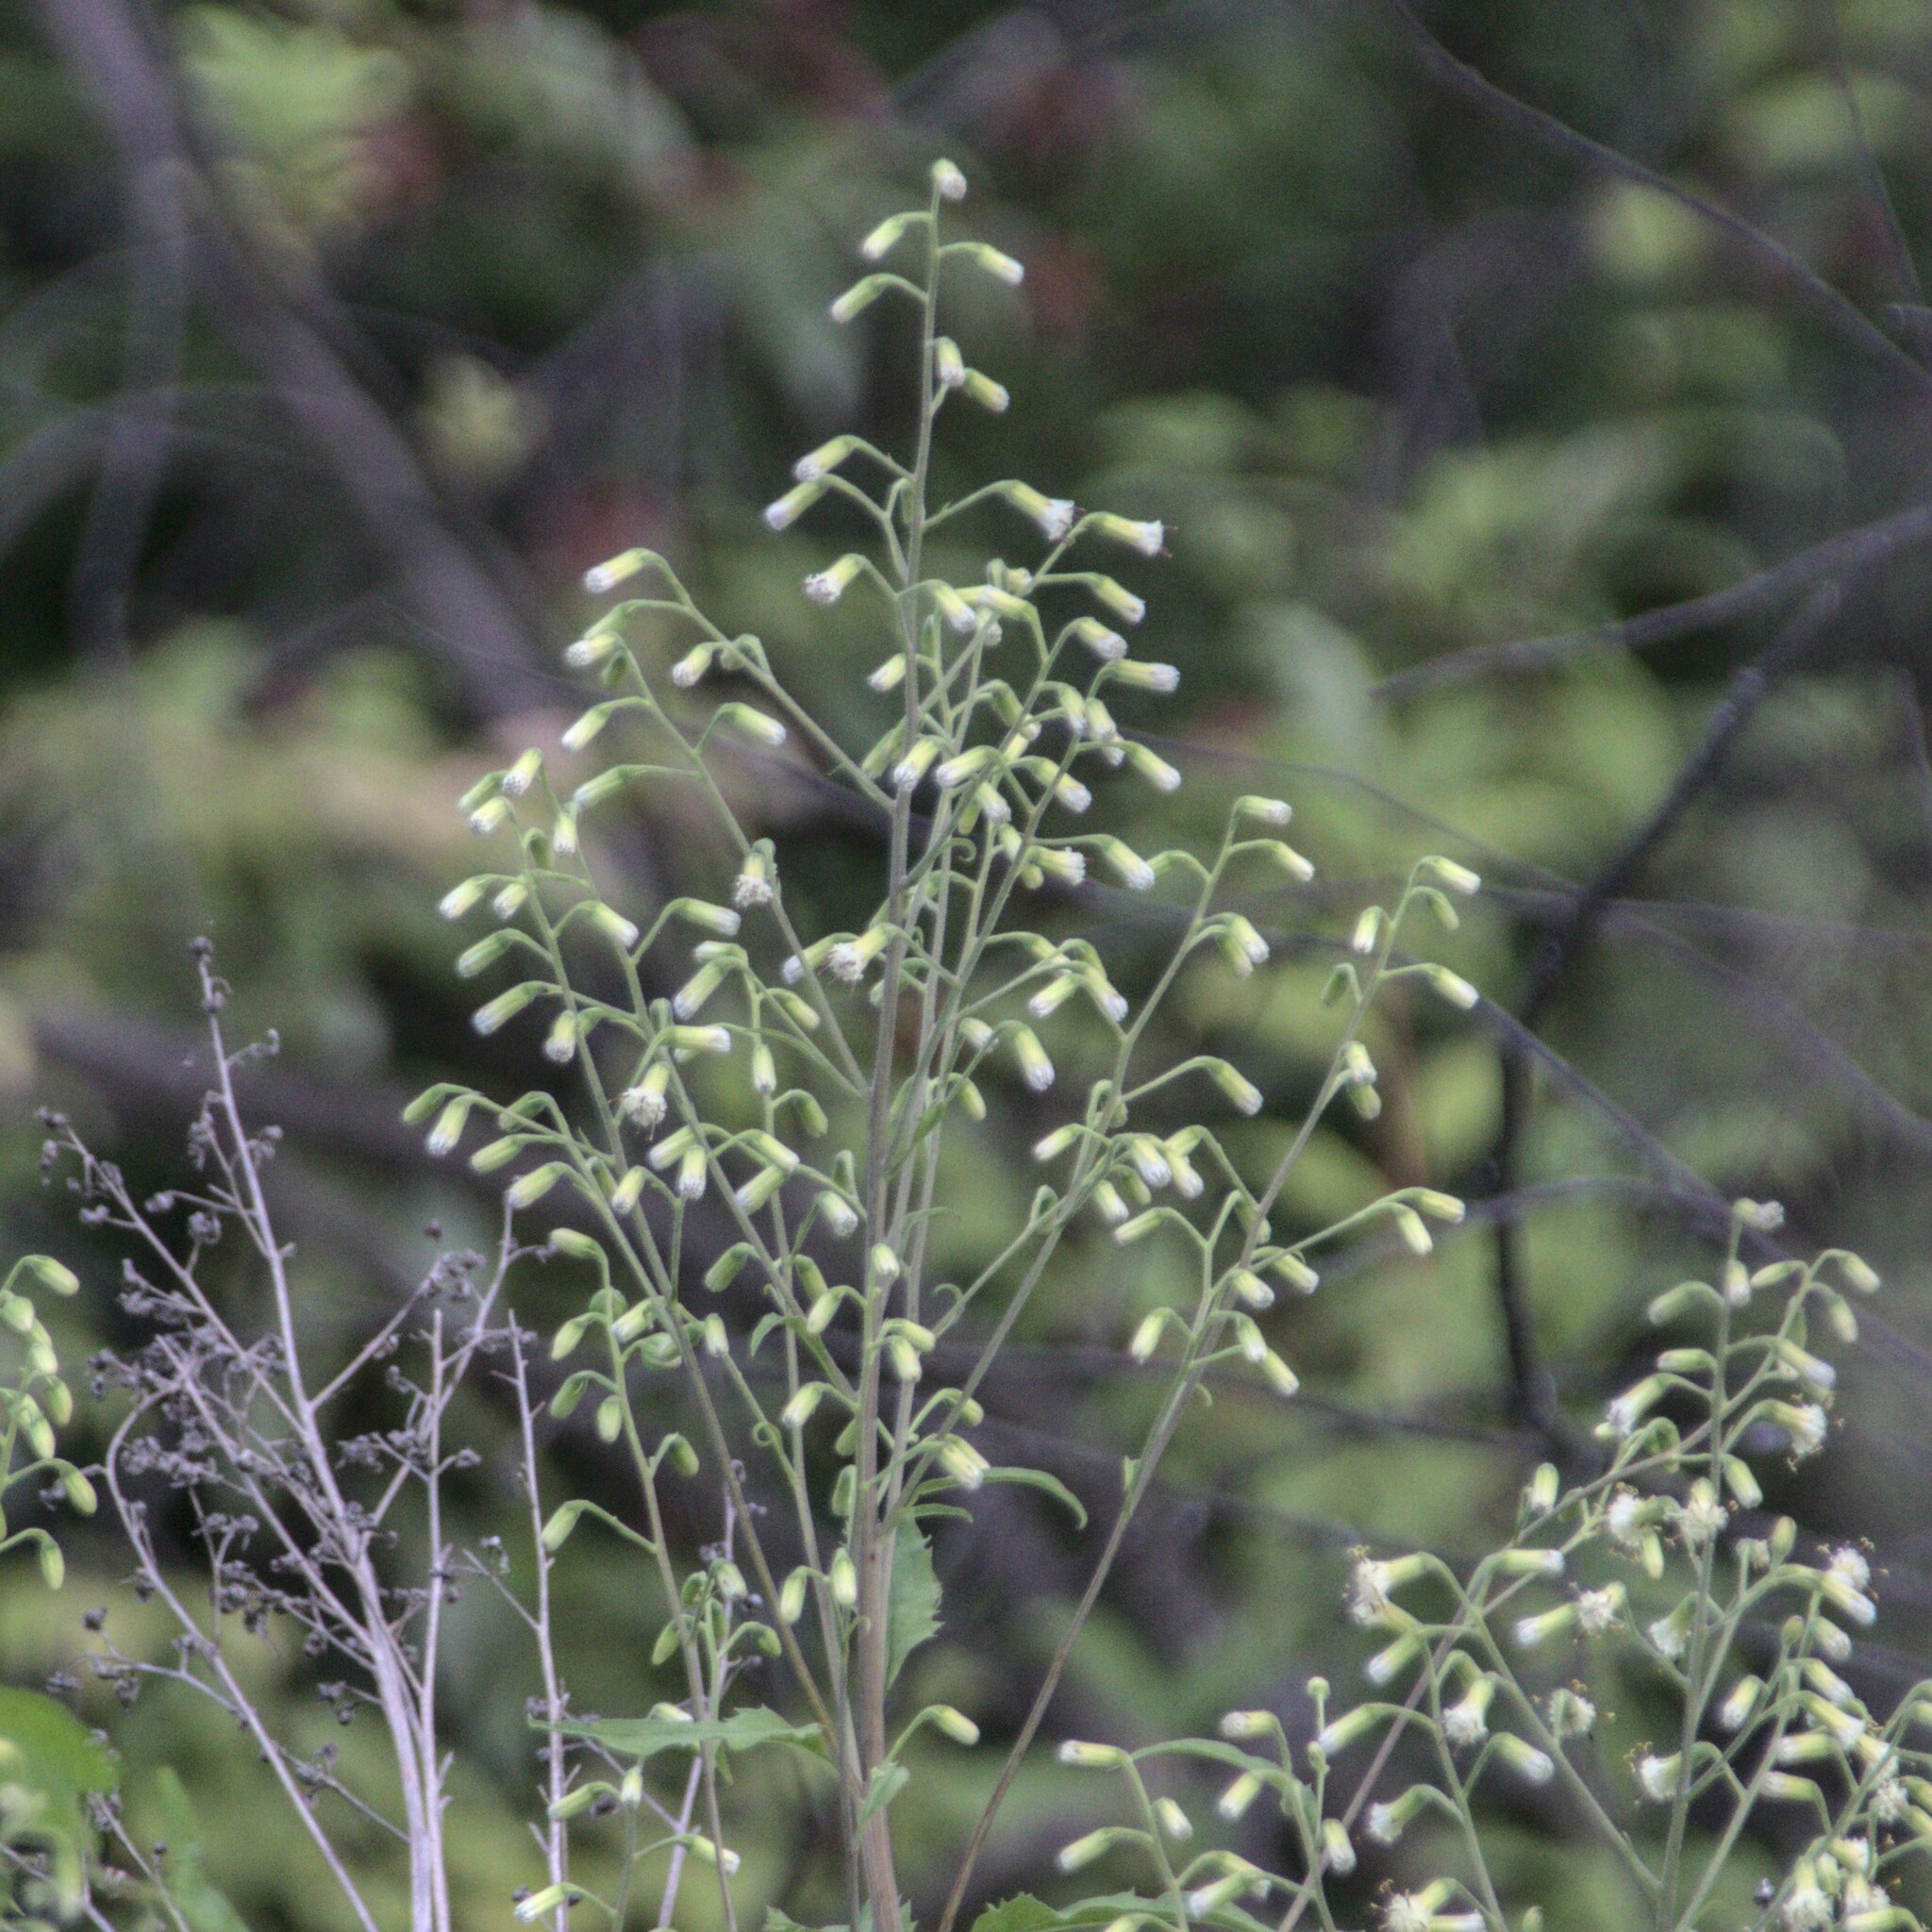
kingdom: Plantae
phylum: Tracheophyta
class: Magnoliopsida
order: Asterales
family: Asteraceae
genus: Parasenecio
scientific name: Parasenecio hastatus
